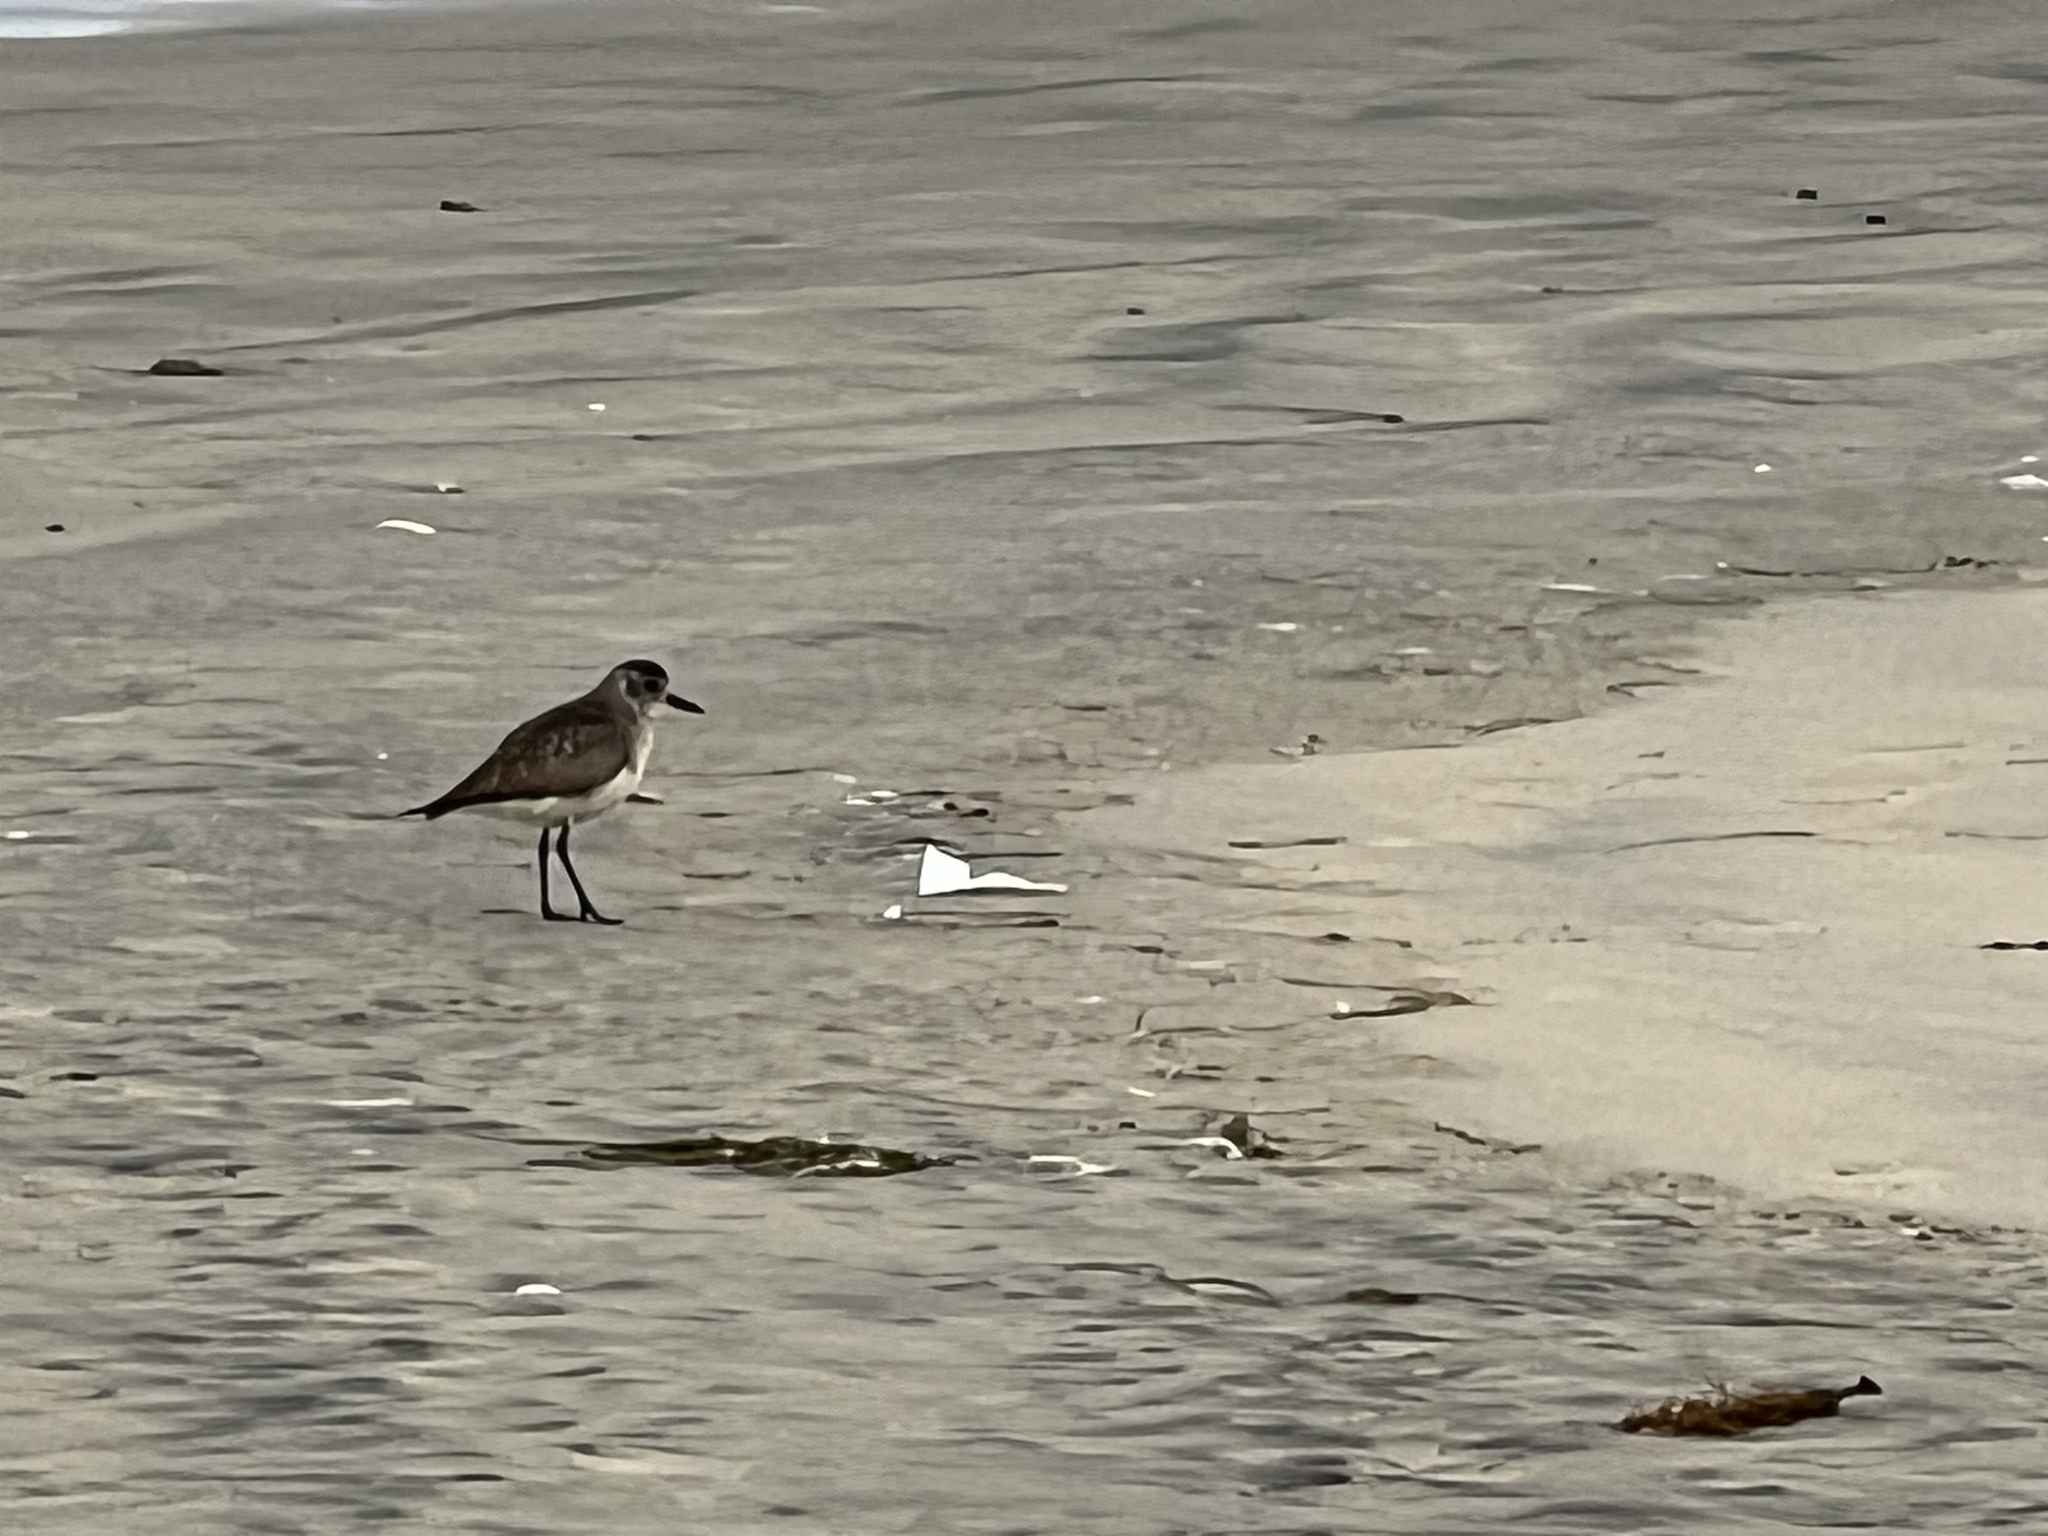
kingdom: Animalia
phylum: Chordata
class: Aves
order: Charadriiformes
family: Charadriidae
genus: Pluvialis
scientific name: Pluvialis squatarola
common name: Grey plover
